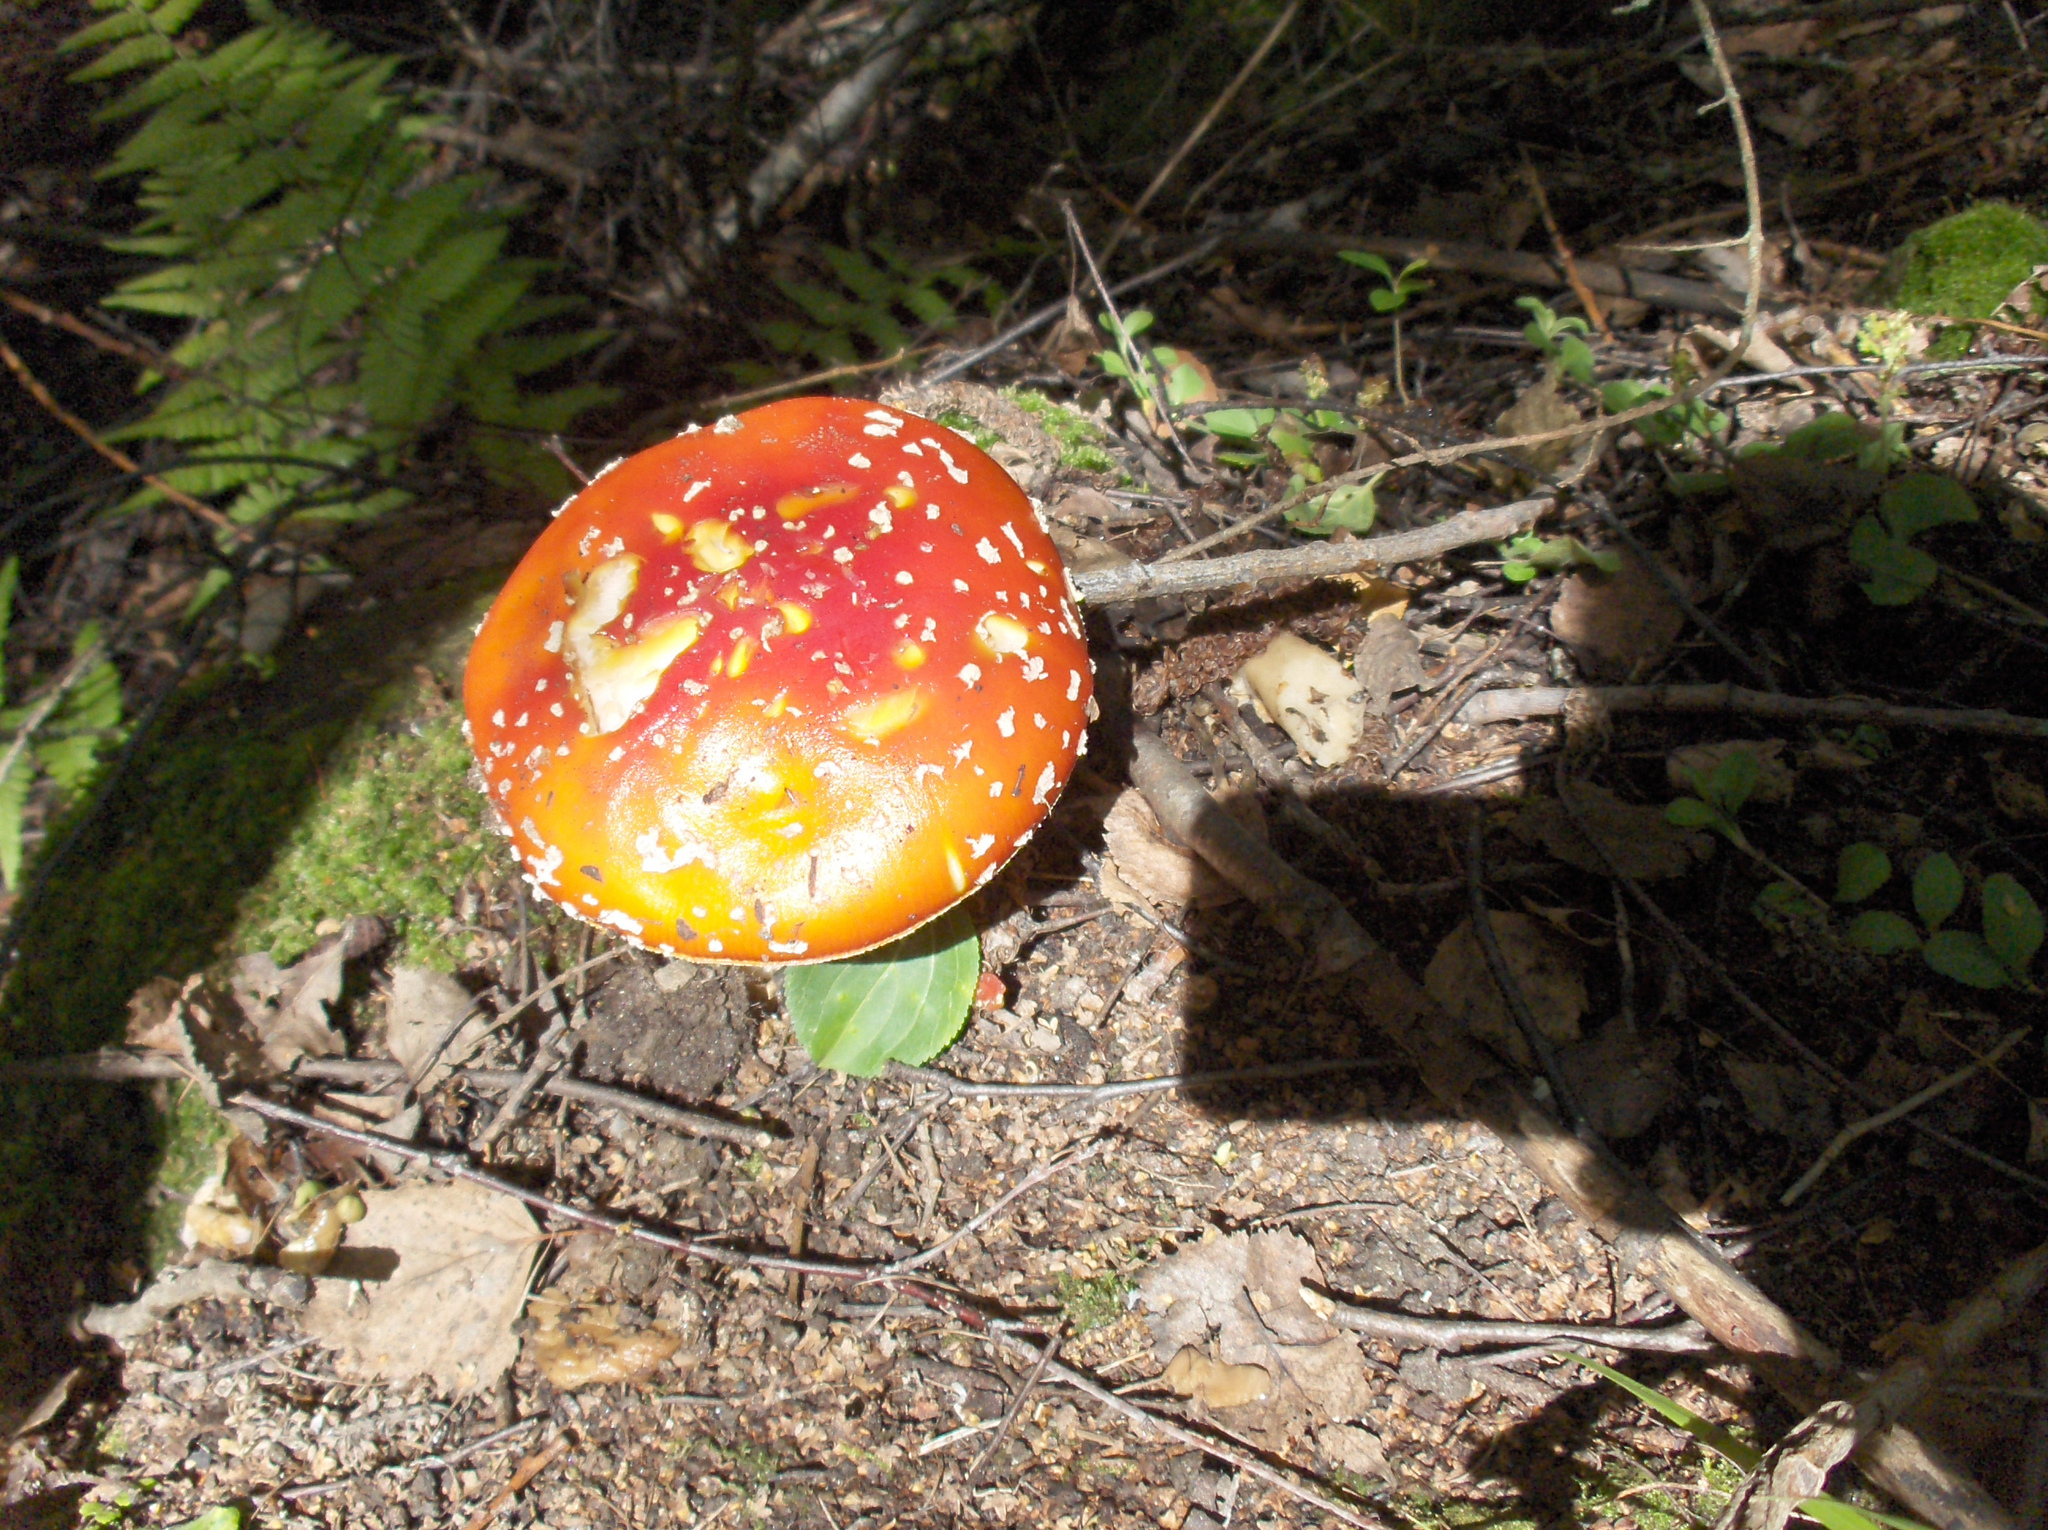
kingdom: Fungi
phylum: Basidiomycota
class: Agaricomycetes
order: Agaricales
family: Amanitaceae
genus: Amanita
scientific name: Amanita muscaria
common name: Fly agaric
